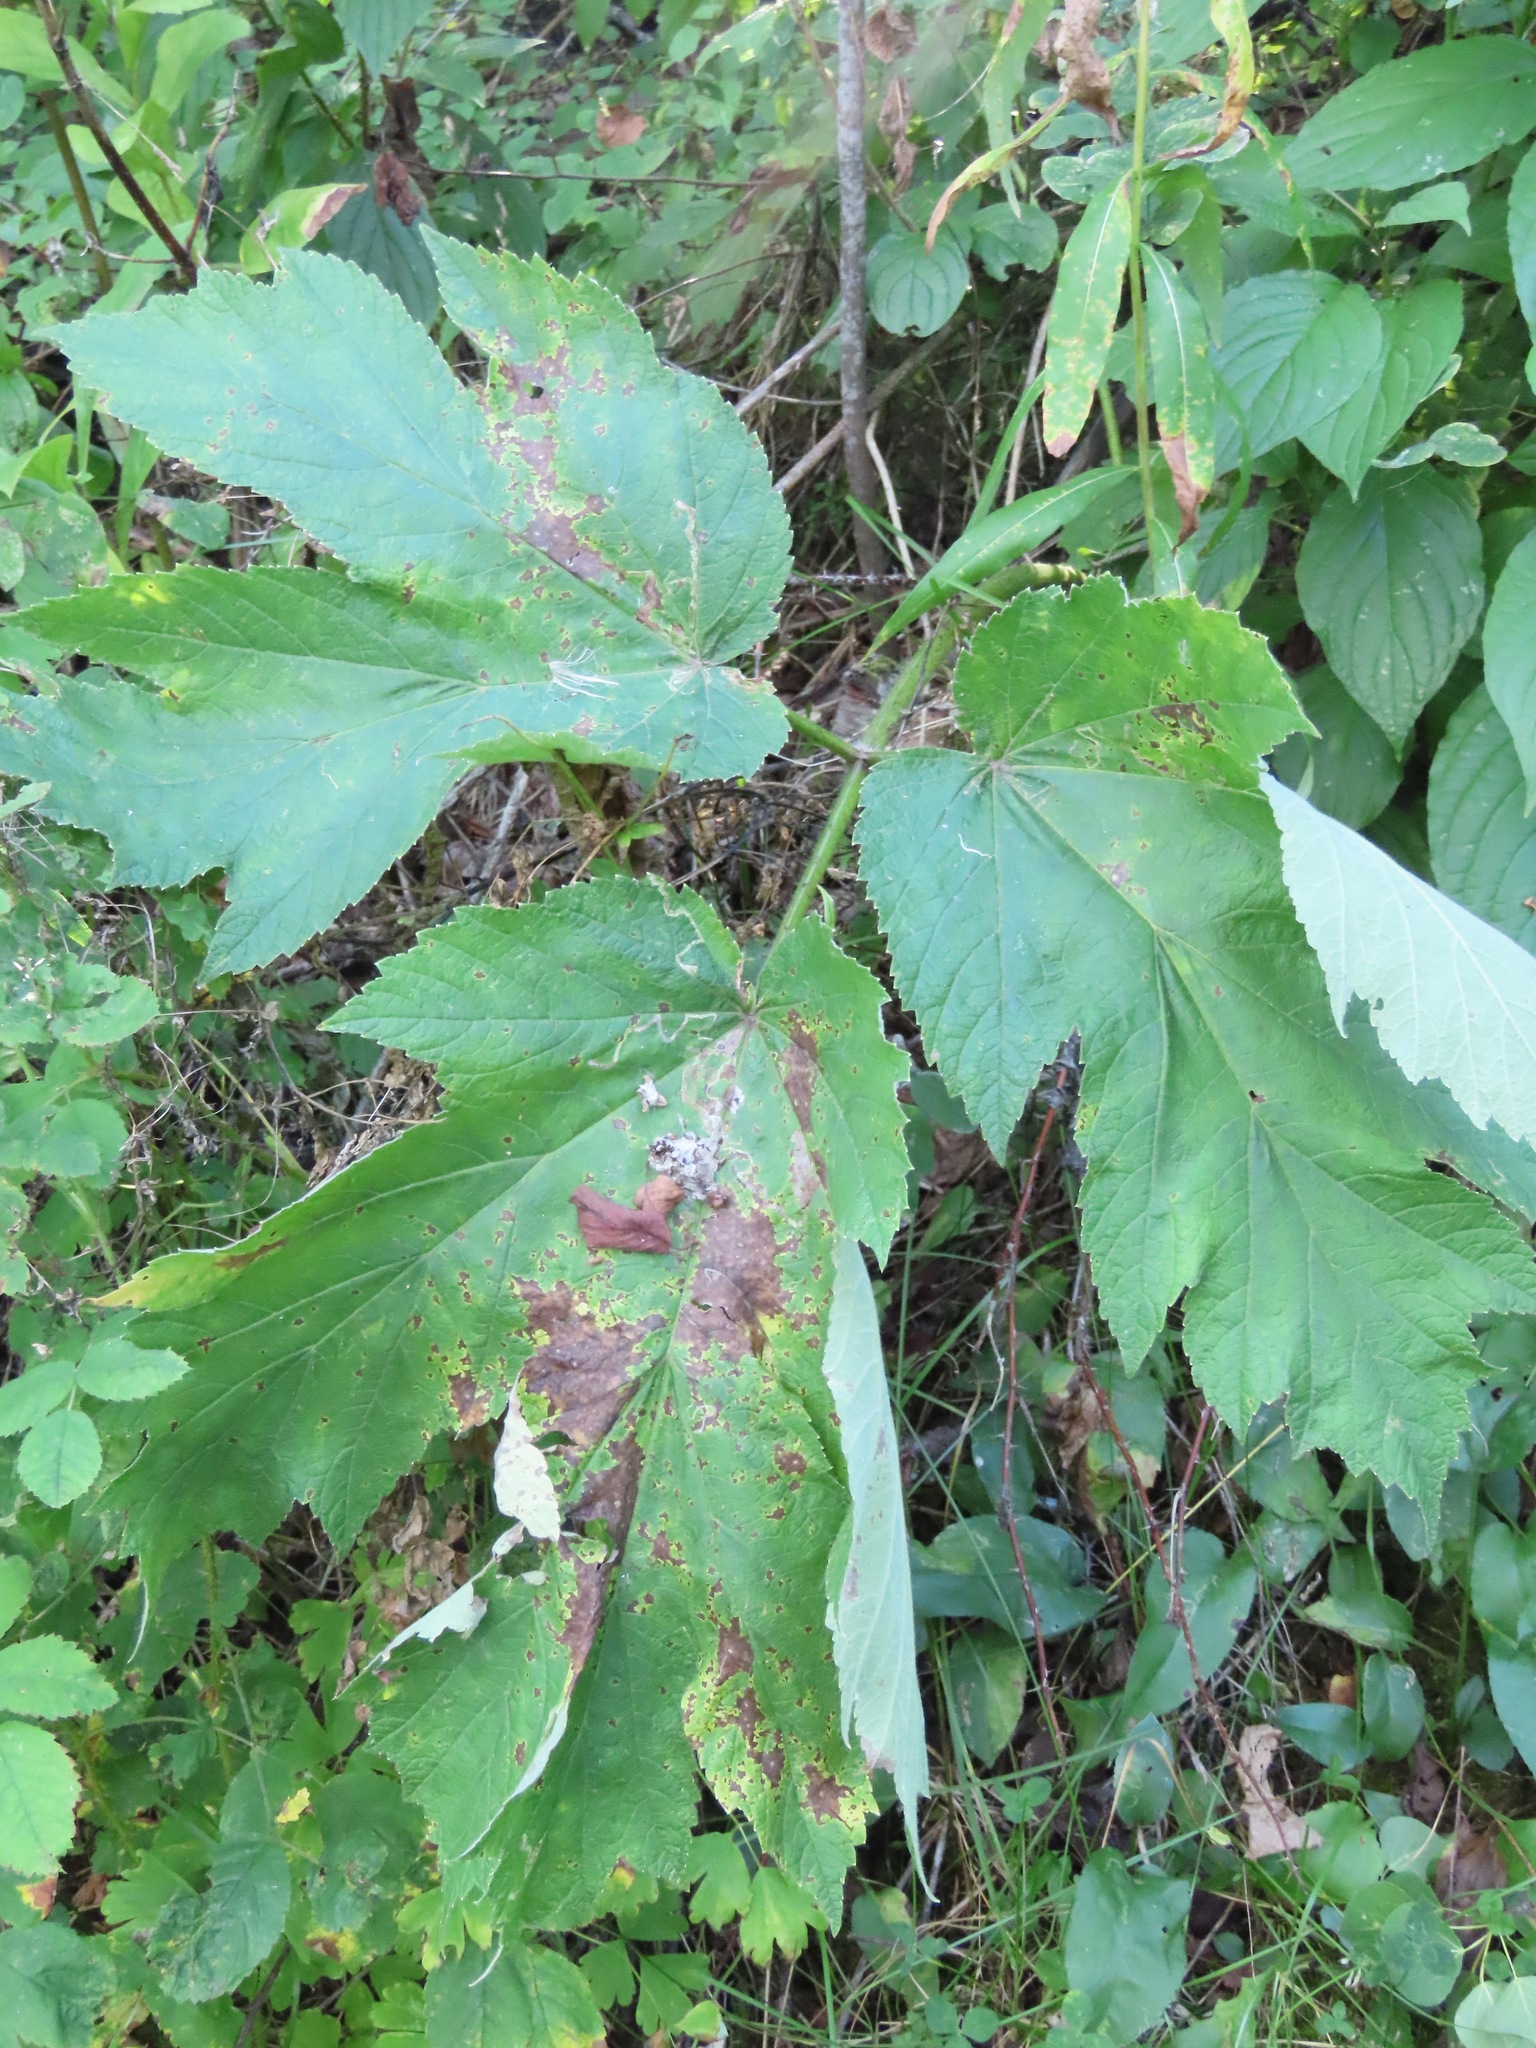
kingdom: Plantae
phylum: Tracheophyta
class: Magnoliopsida
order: Apiales
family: Apiaceae
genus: Heracleum
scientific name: Heracleum maximum
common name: American cow parsnip
